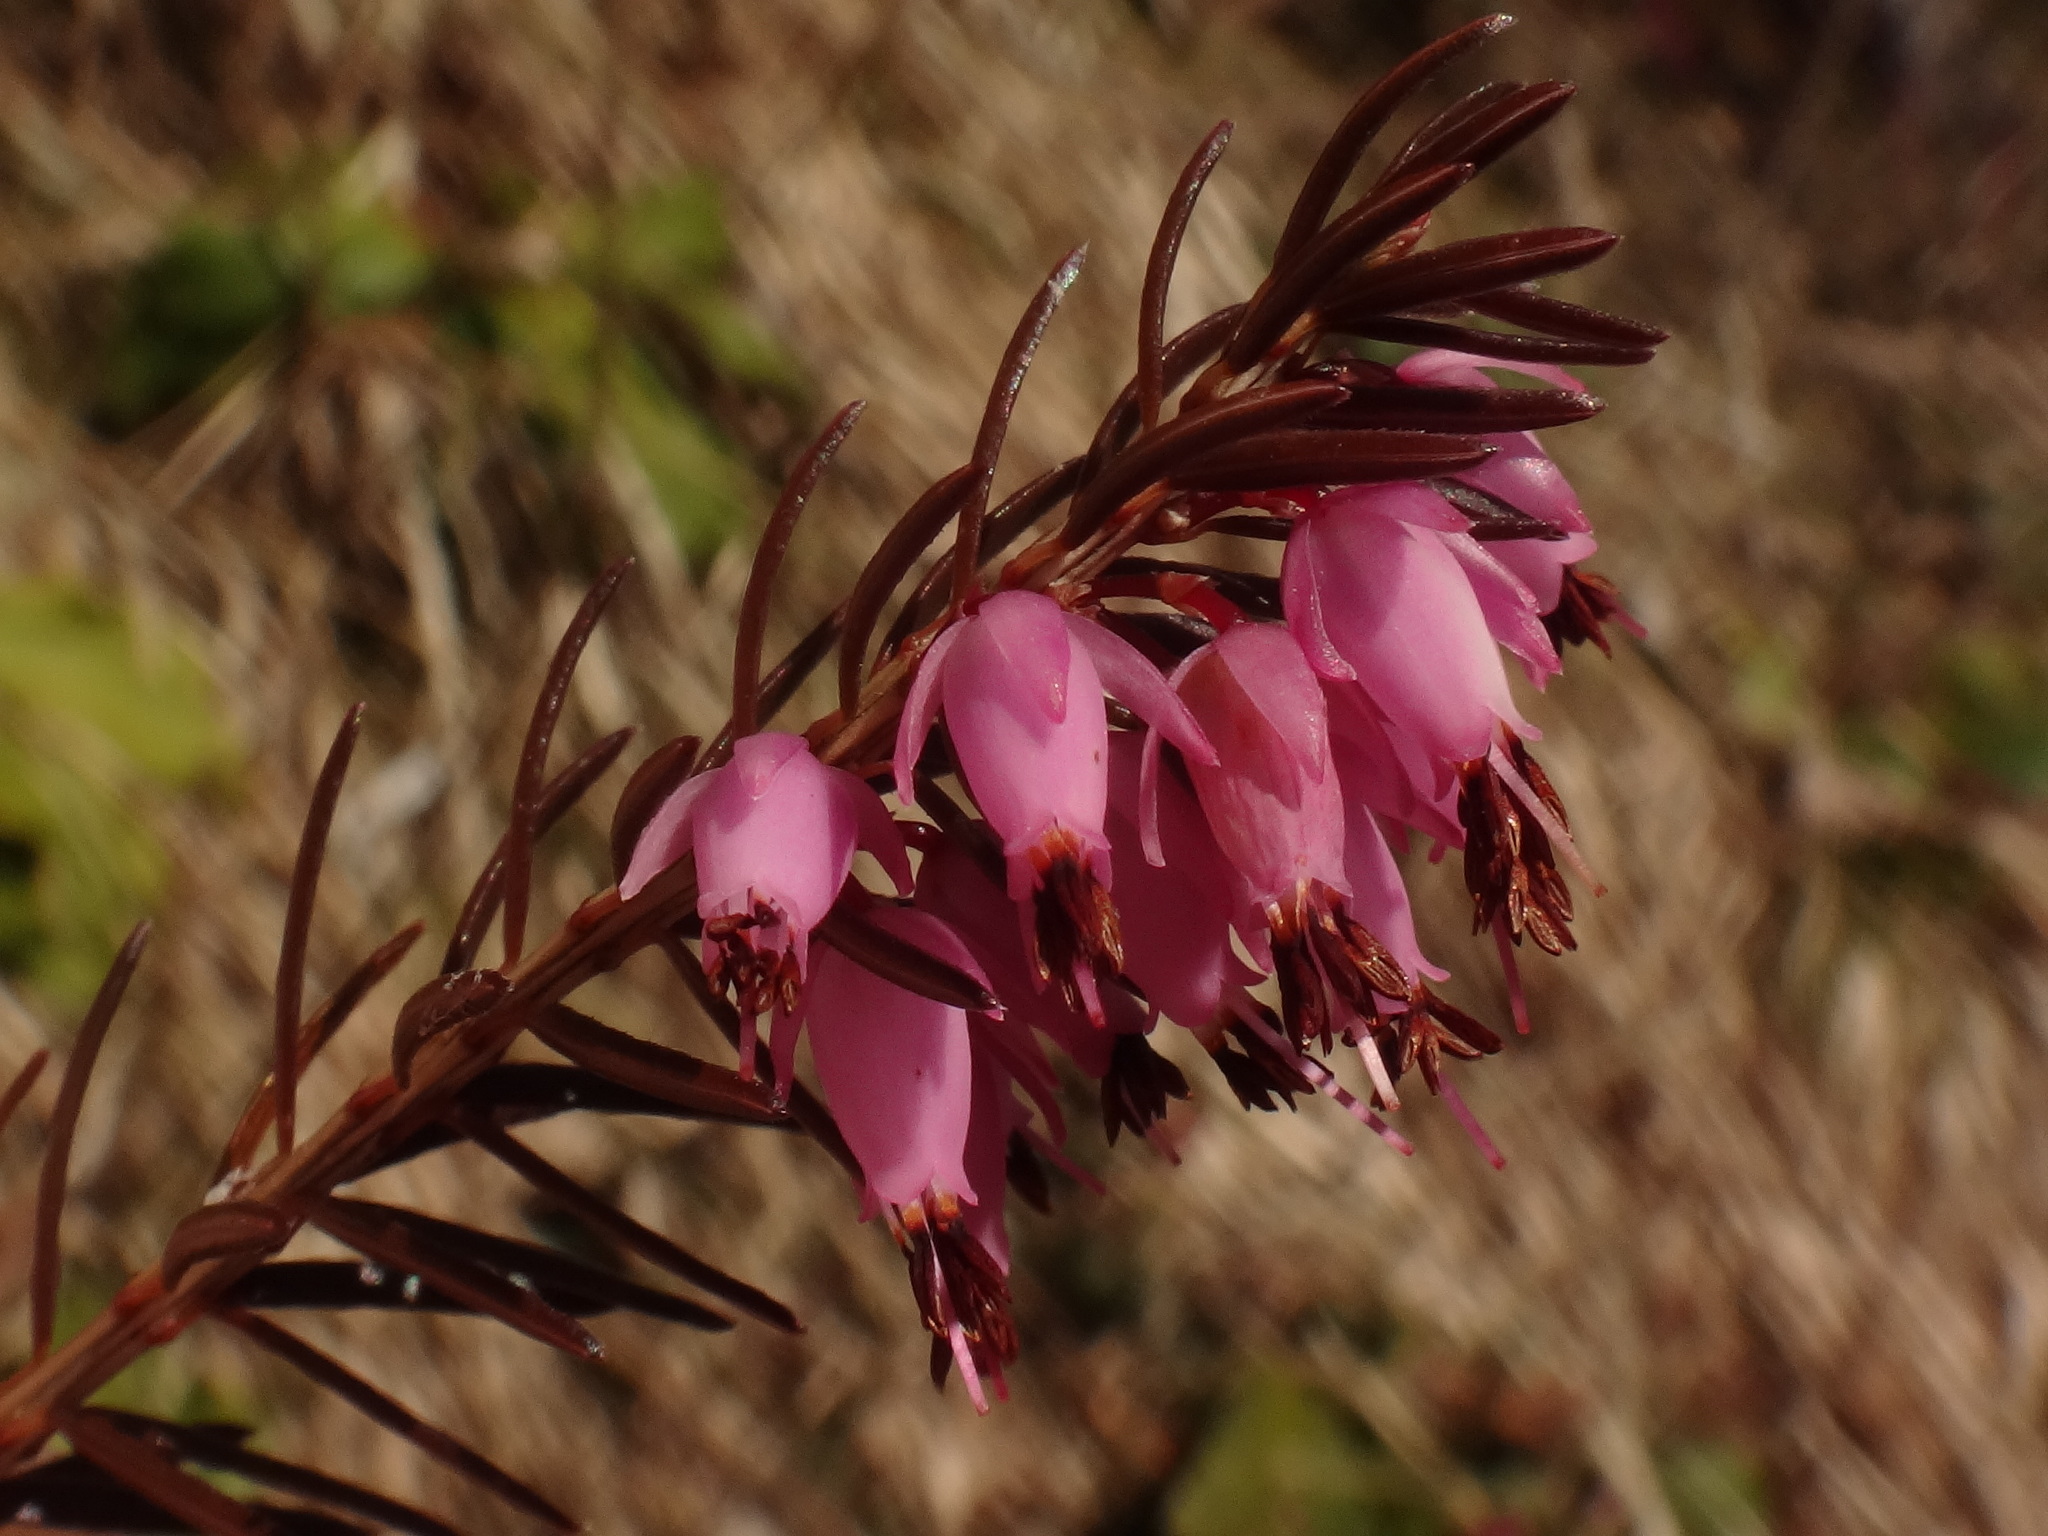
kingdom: Plantae
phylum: Tracheophyta
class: Magnoliopsida
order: Ericales
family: Ericaceae
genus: Erica
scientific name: Erica carnea
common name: Winter heath
